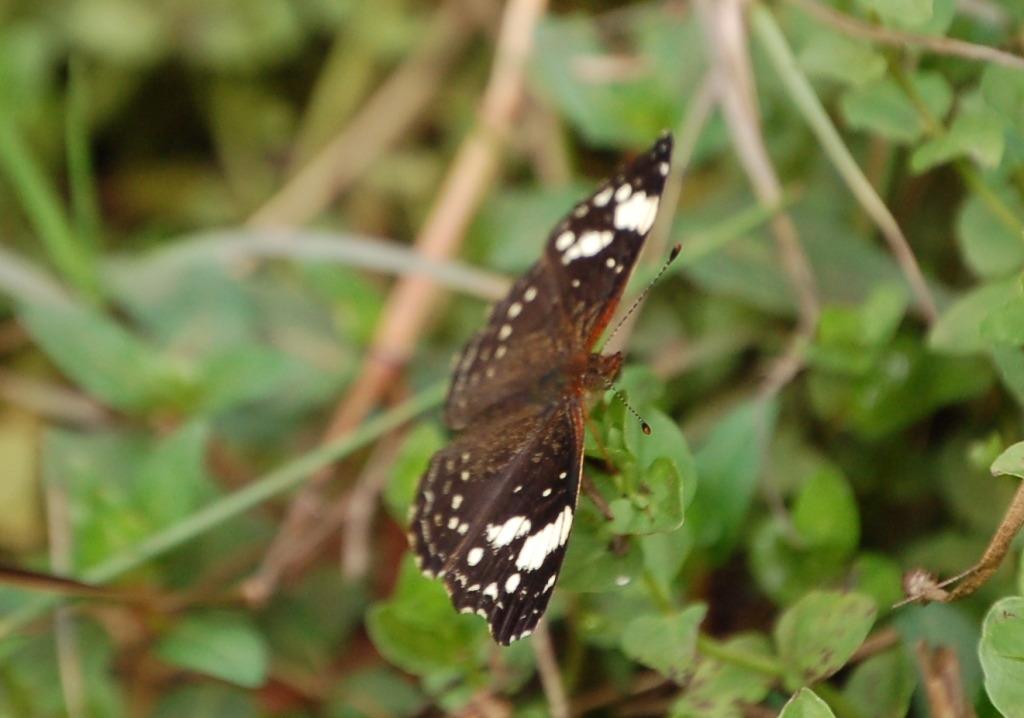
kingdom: Animalia
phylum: Arthropoda
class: Insecta
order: Lepidoptera
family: Nymphalidae
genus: Anthanassa
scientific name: Anthanassa sitalces
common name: Montane crescent
